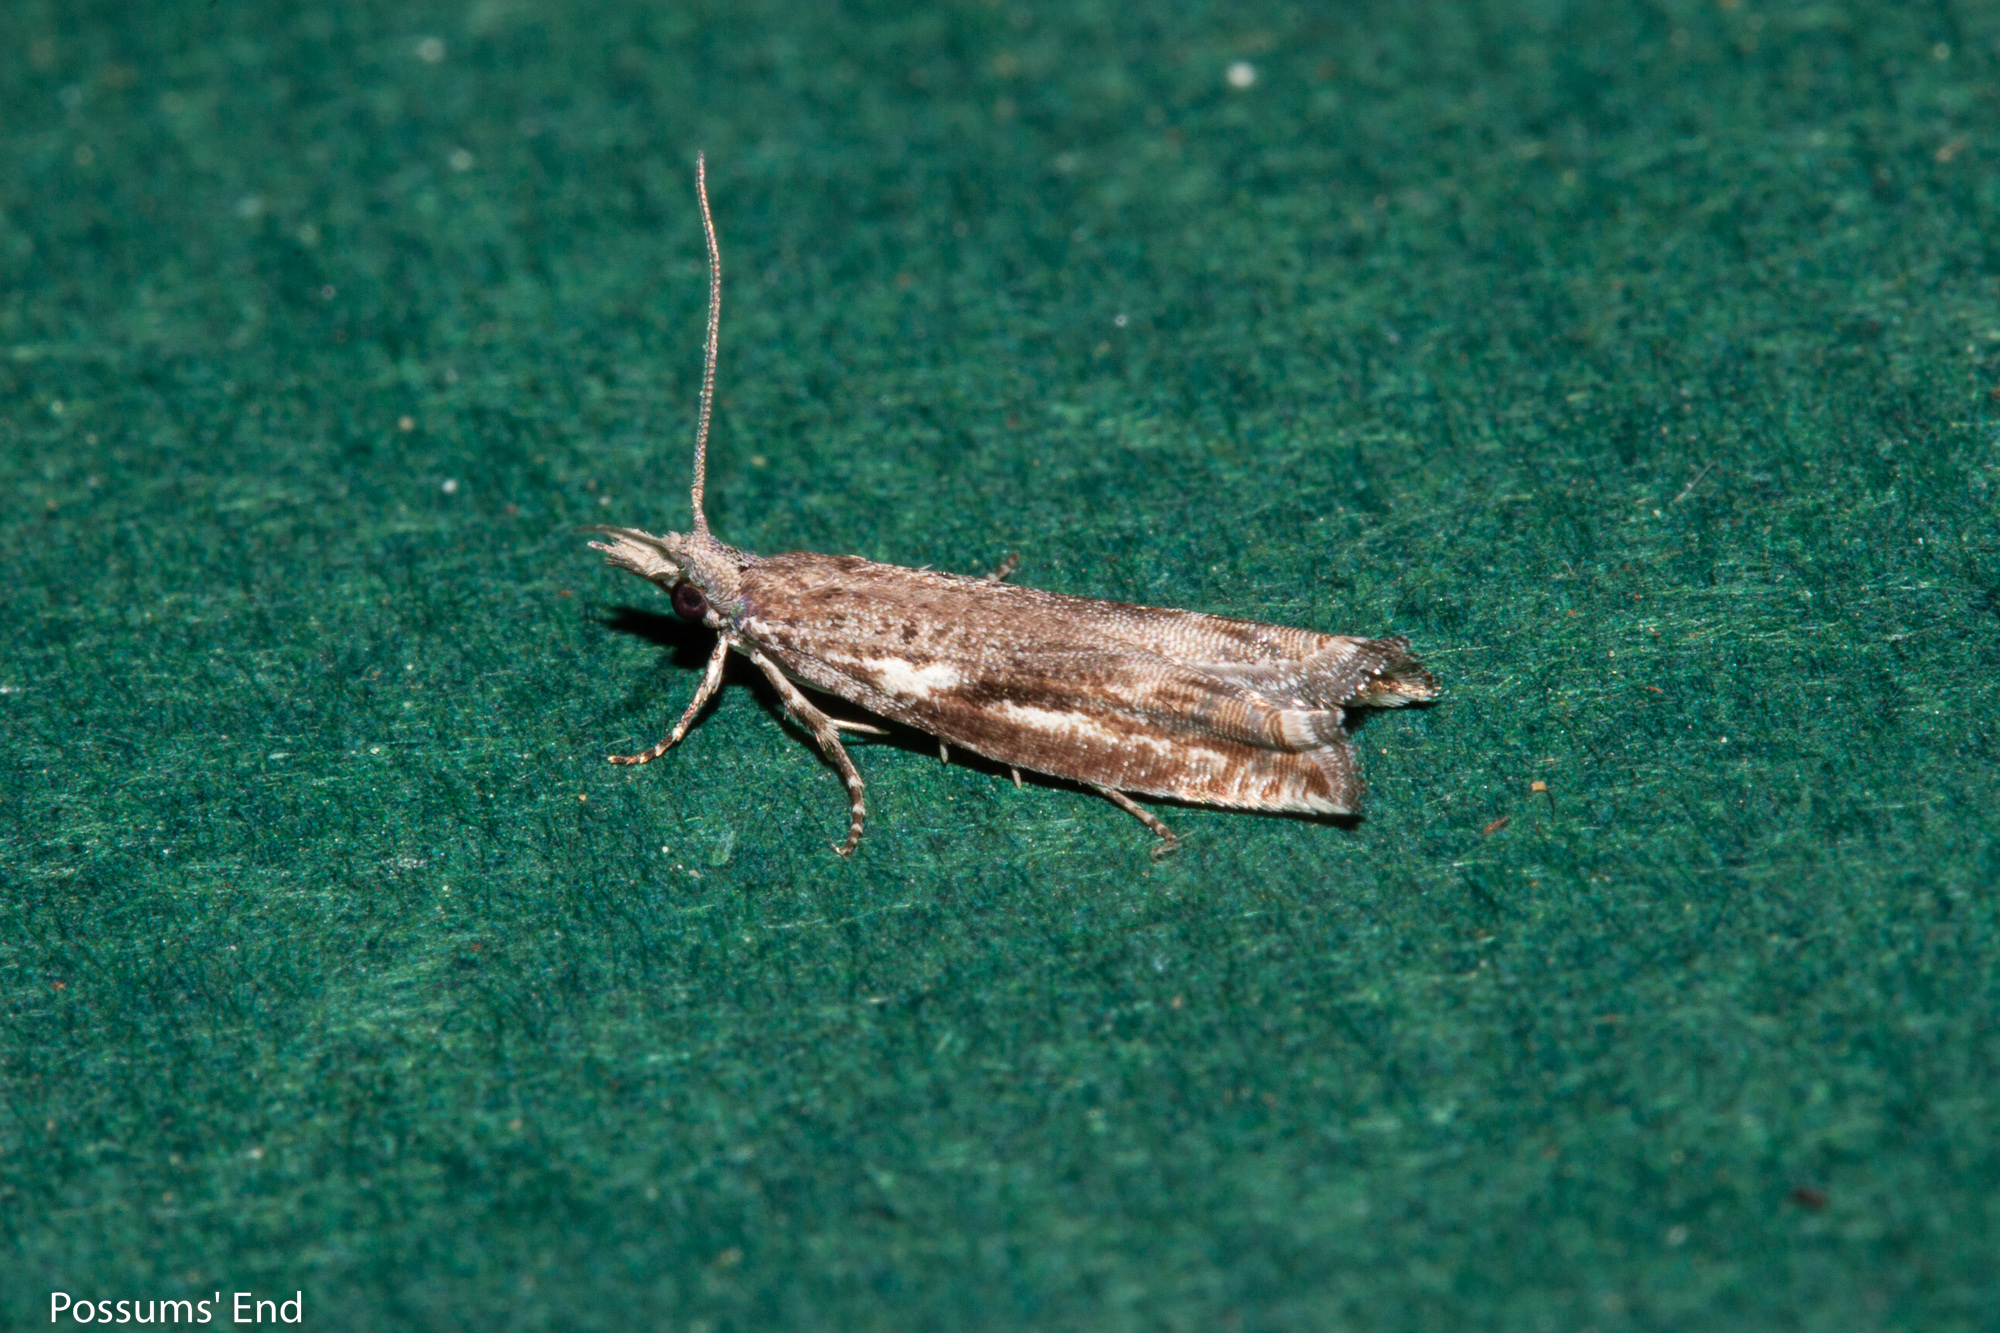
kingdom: Animalia
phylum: Arthropoda
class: Insecta
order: Lepidoptera
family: Tortricidae
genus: Holocola
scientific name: Holocola zopherana
